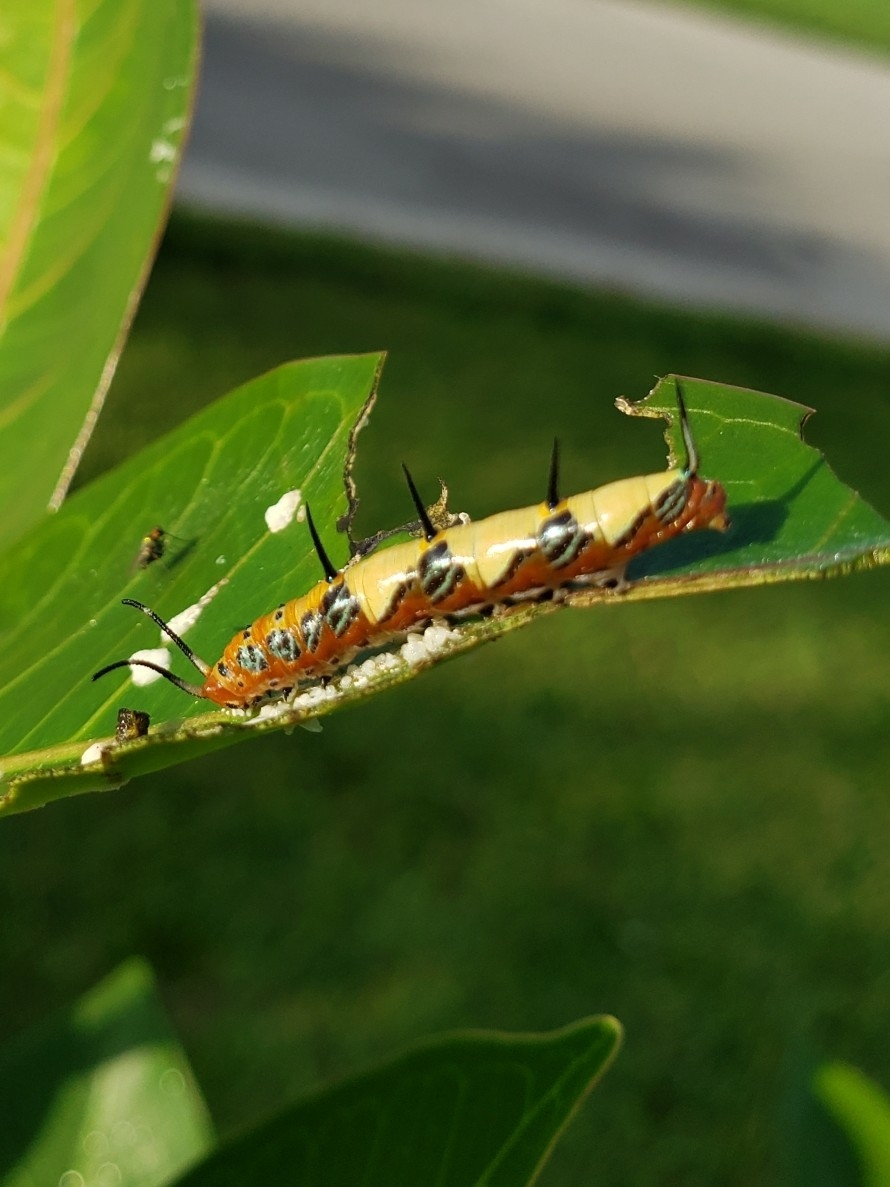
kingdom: Animalia
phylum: Arthropoda
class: Insecta
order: Lepidoptera
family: Nymphalidae
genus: Marpesia
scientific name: Marpesia petreus
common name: Red dagger wing
